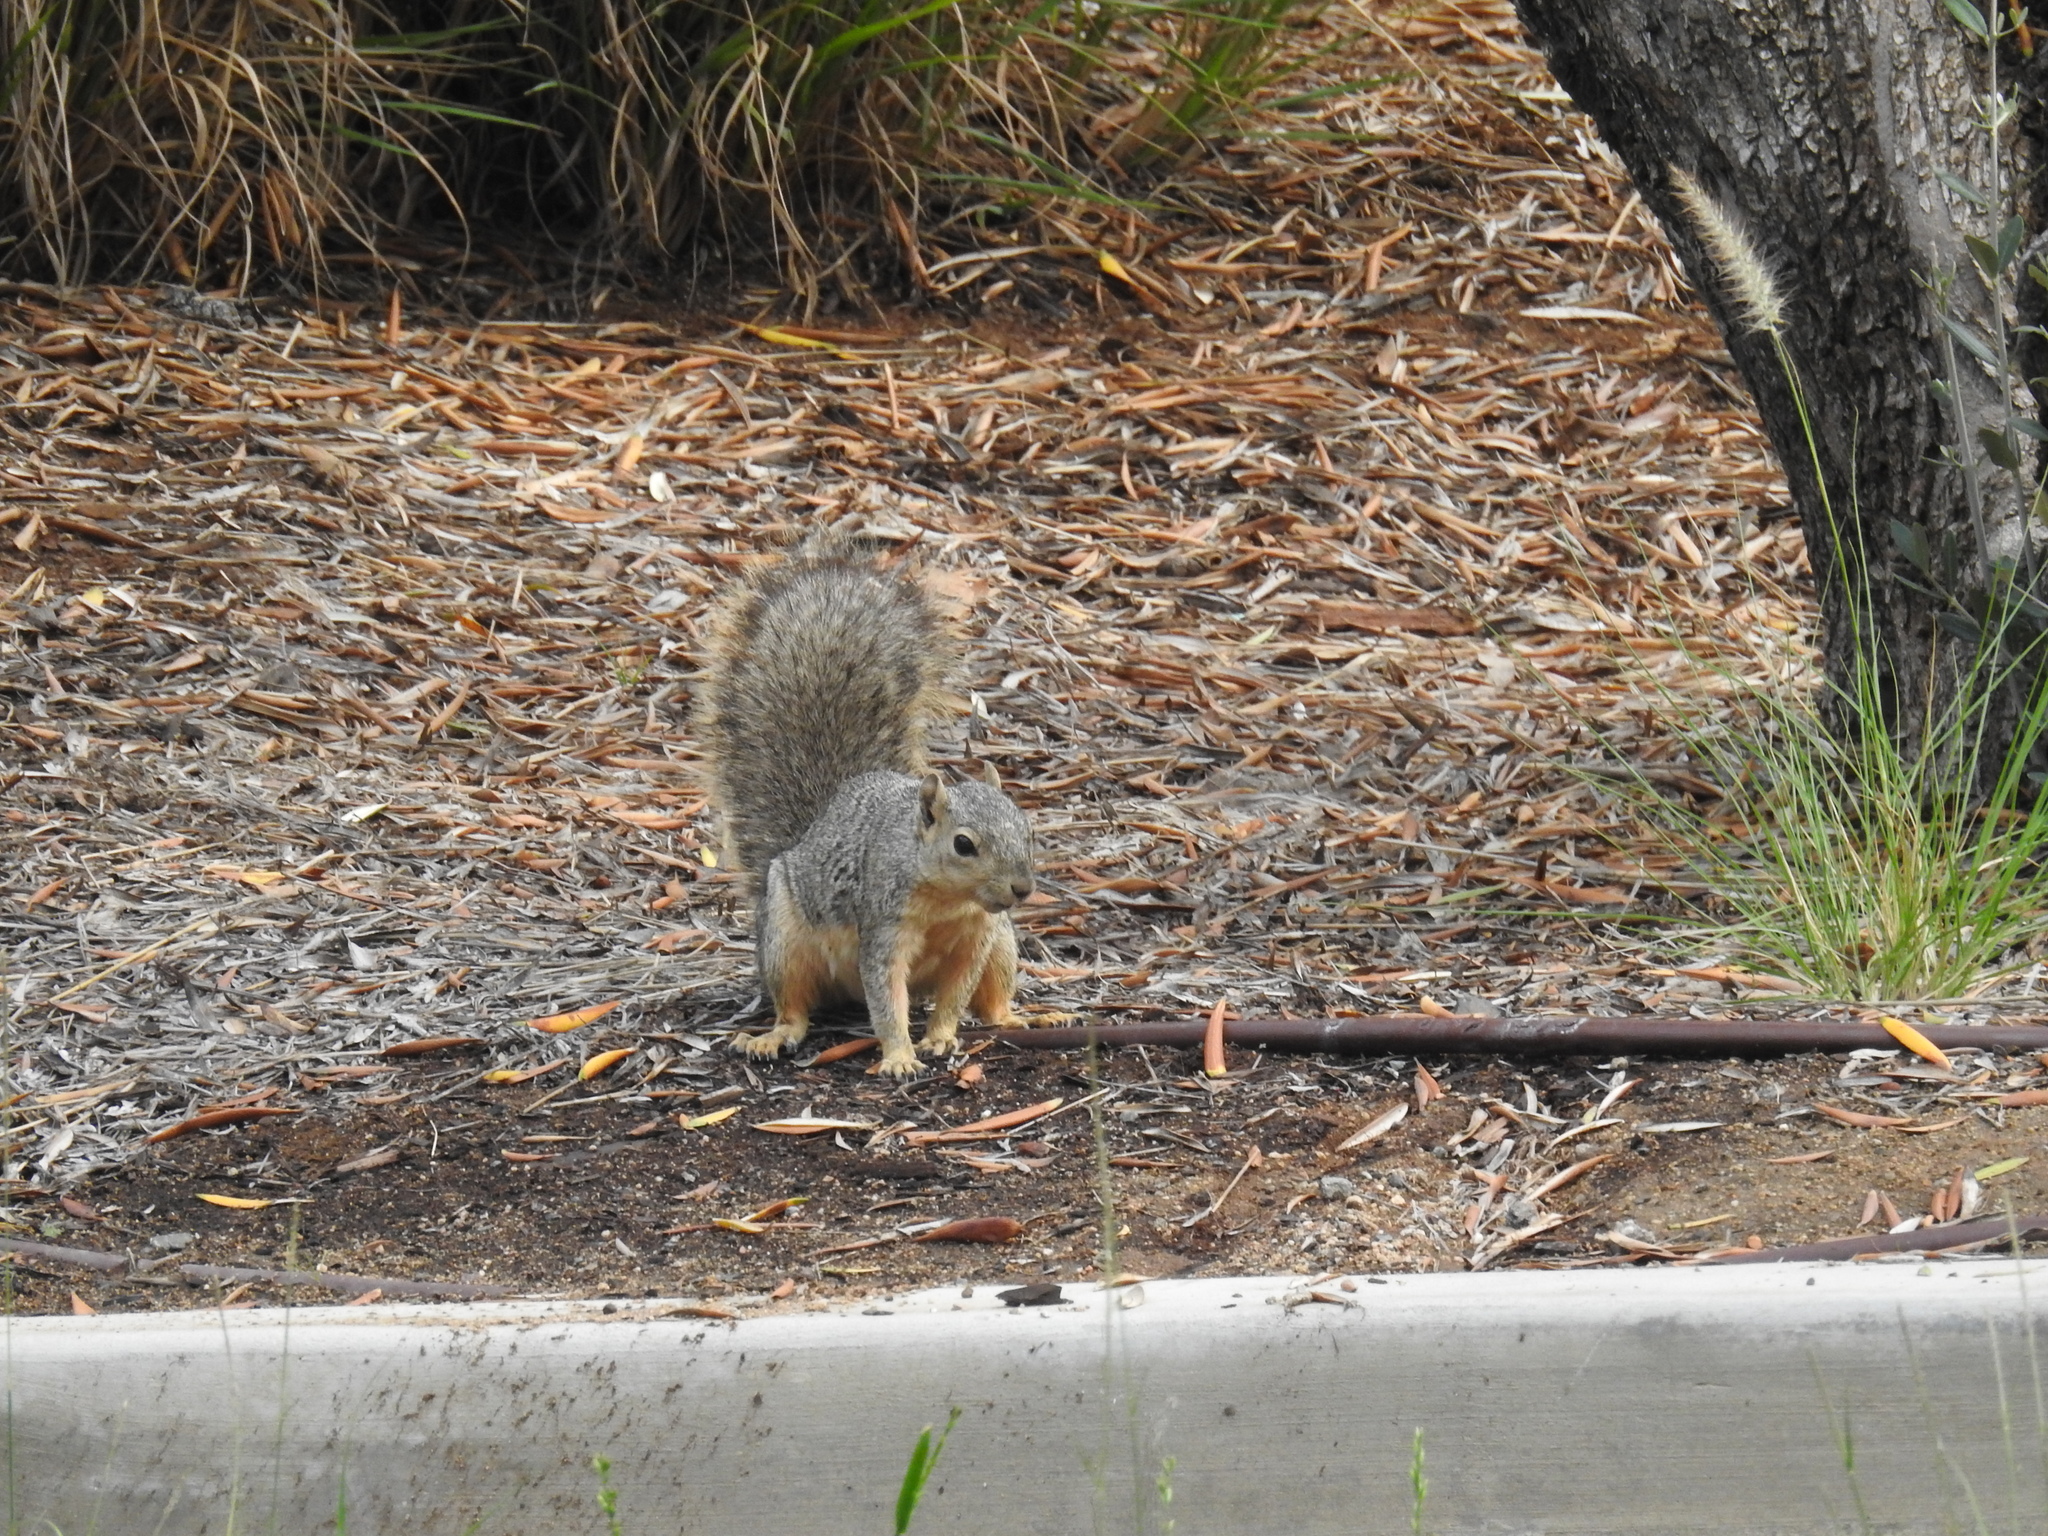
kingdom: Animalia
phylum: Chordata
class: Mammalia
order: Rodentia
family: Sciuridae
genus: Sciurus
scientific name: Sciurus niger
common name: Fox squirrel
